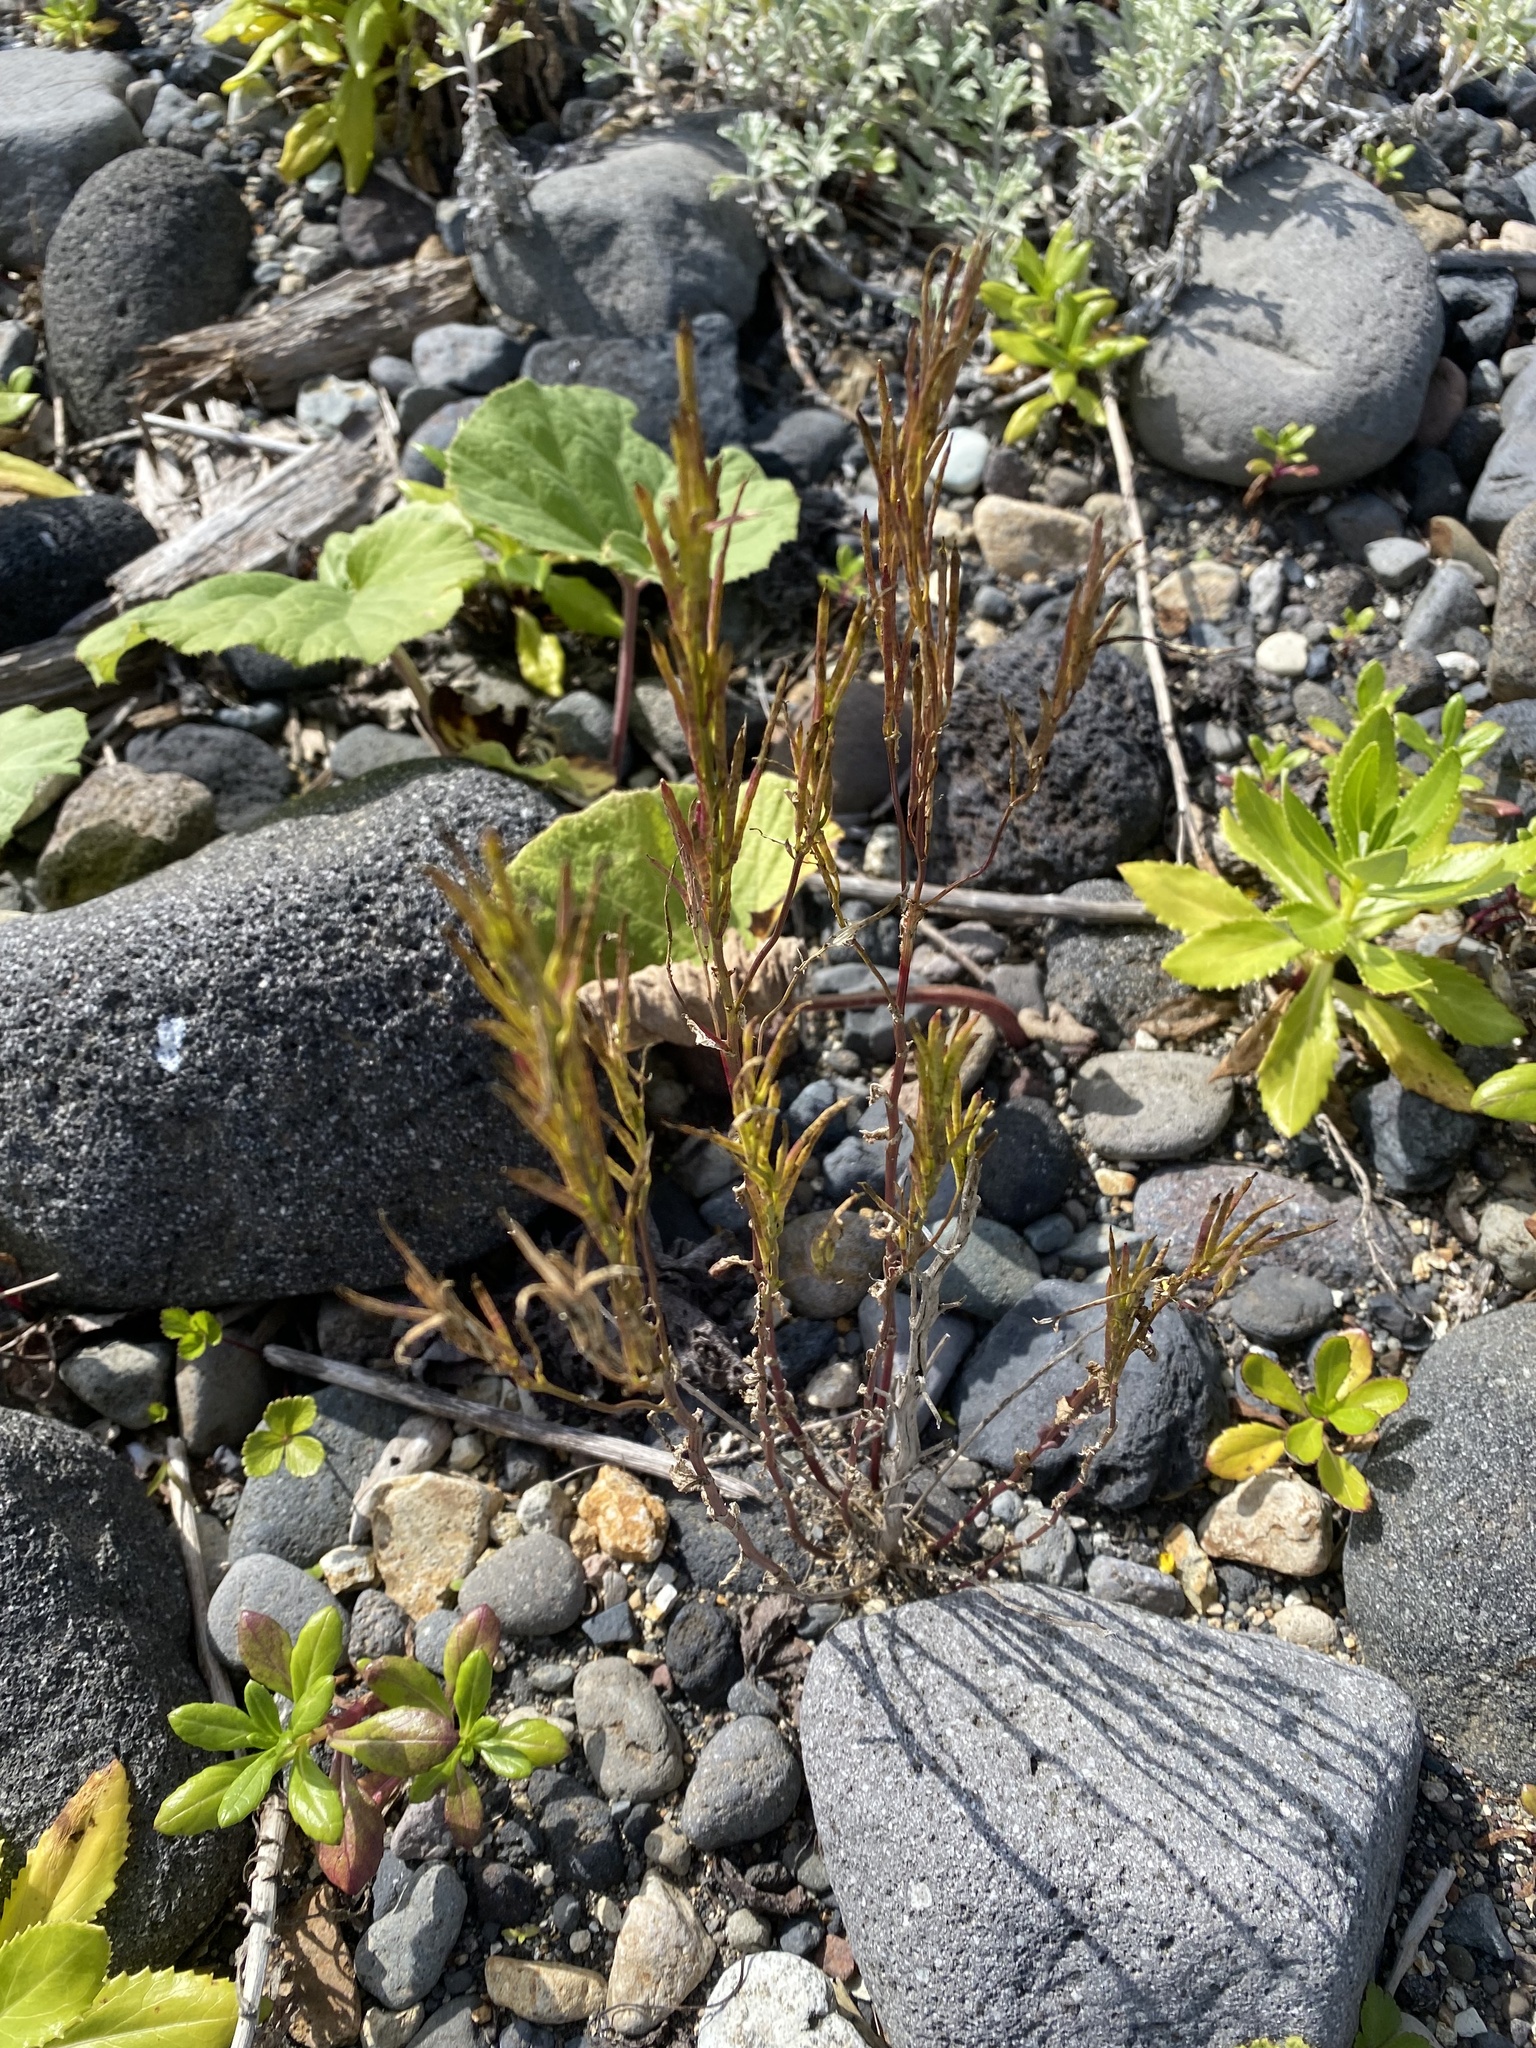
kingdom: Plantae
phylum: Tracheophyta
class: Magnoliopsida
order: Brassicales
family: Brassicaceae
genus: Barbarea
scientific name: Barbarea orthoceras
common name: American wintercress
